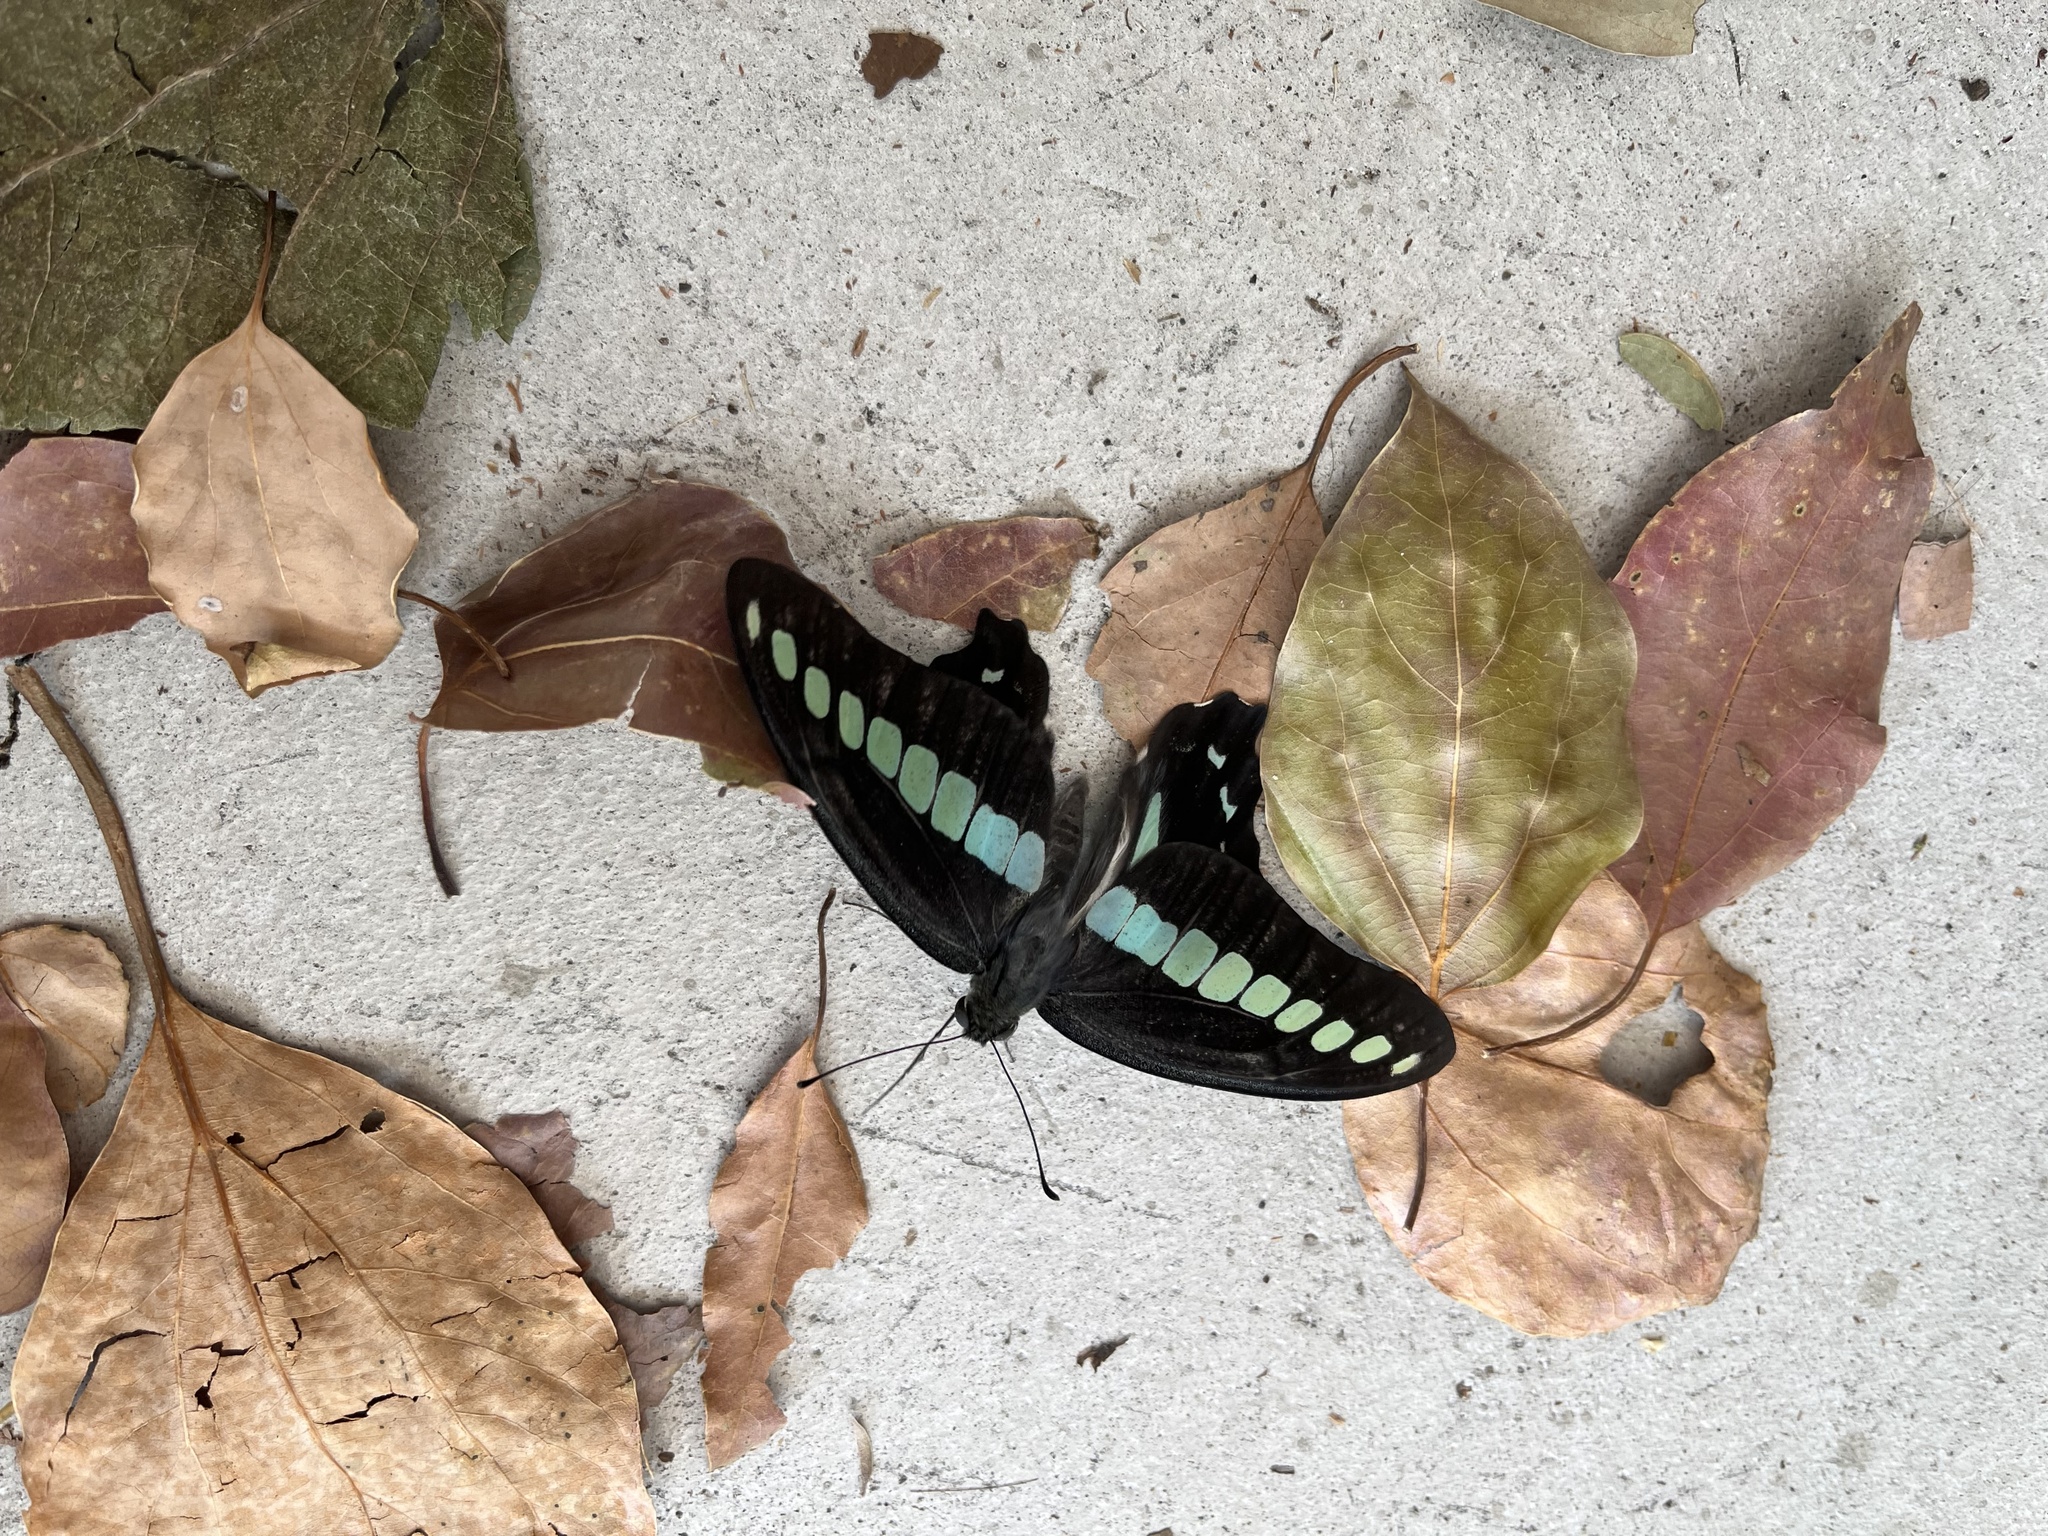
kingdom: Fungi
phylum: Ascomycota
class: Sordariomycetes
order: Microascales
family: Microascaceae
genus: Graphium
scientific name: Graphium sarpedon
